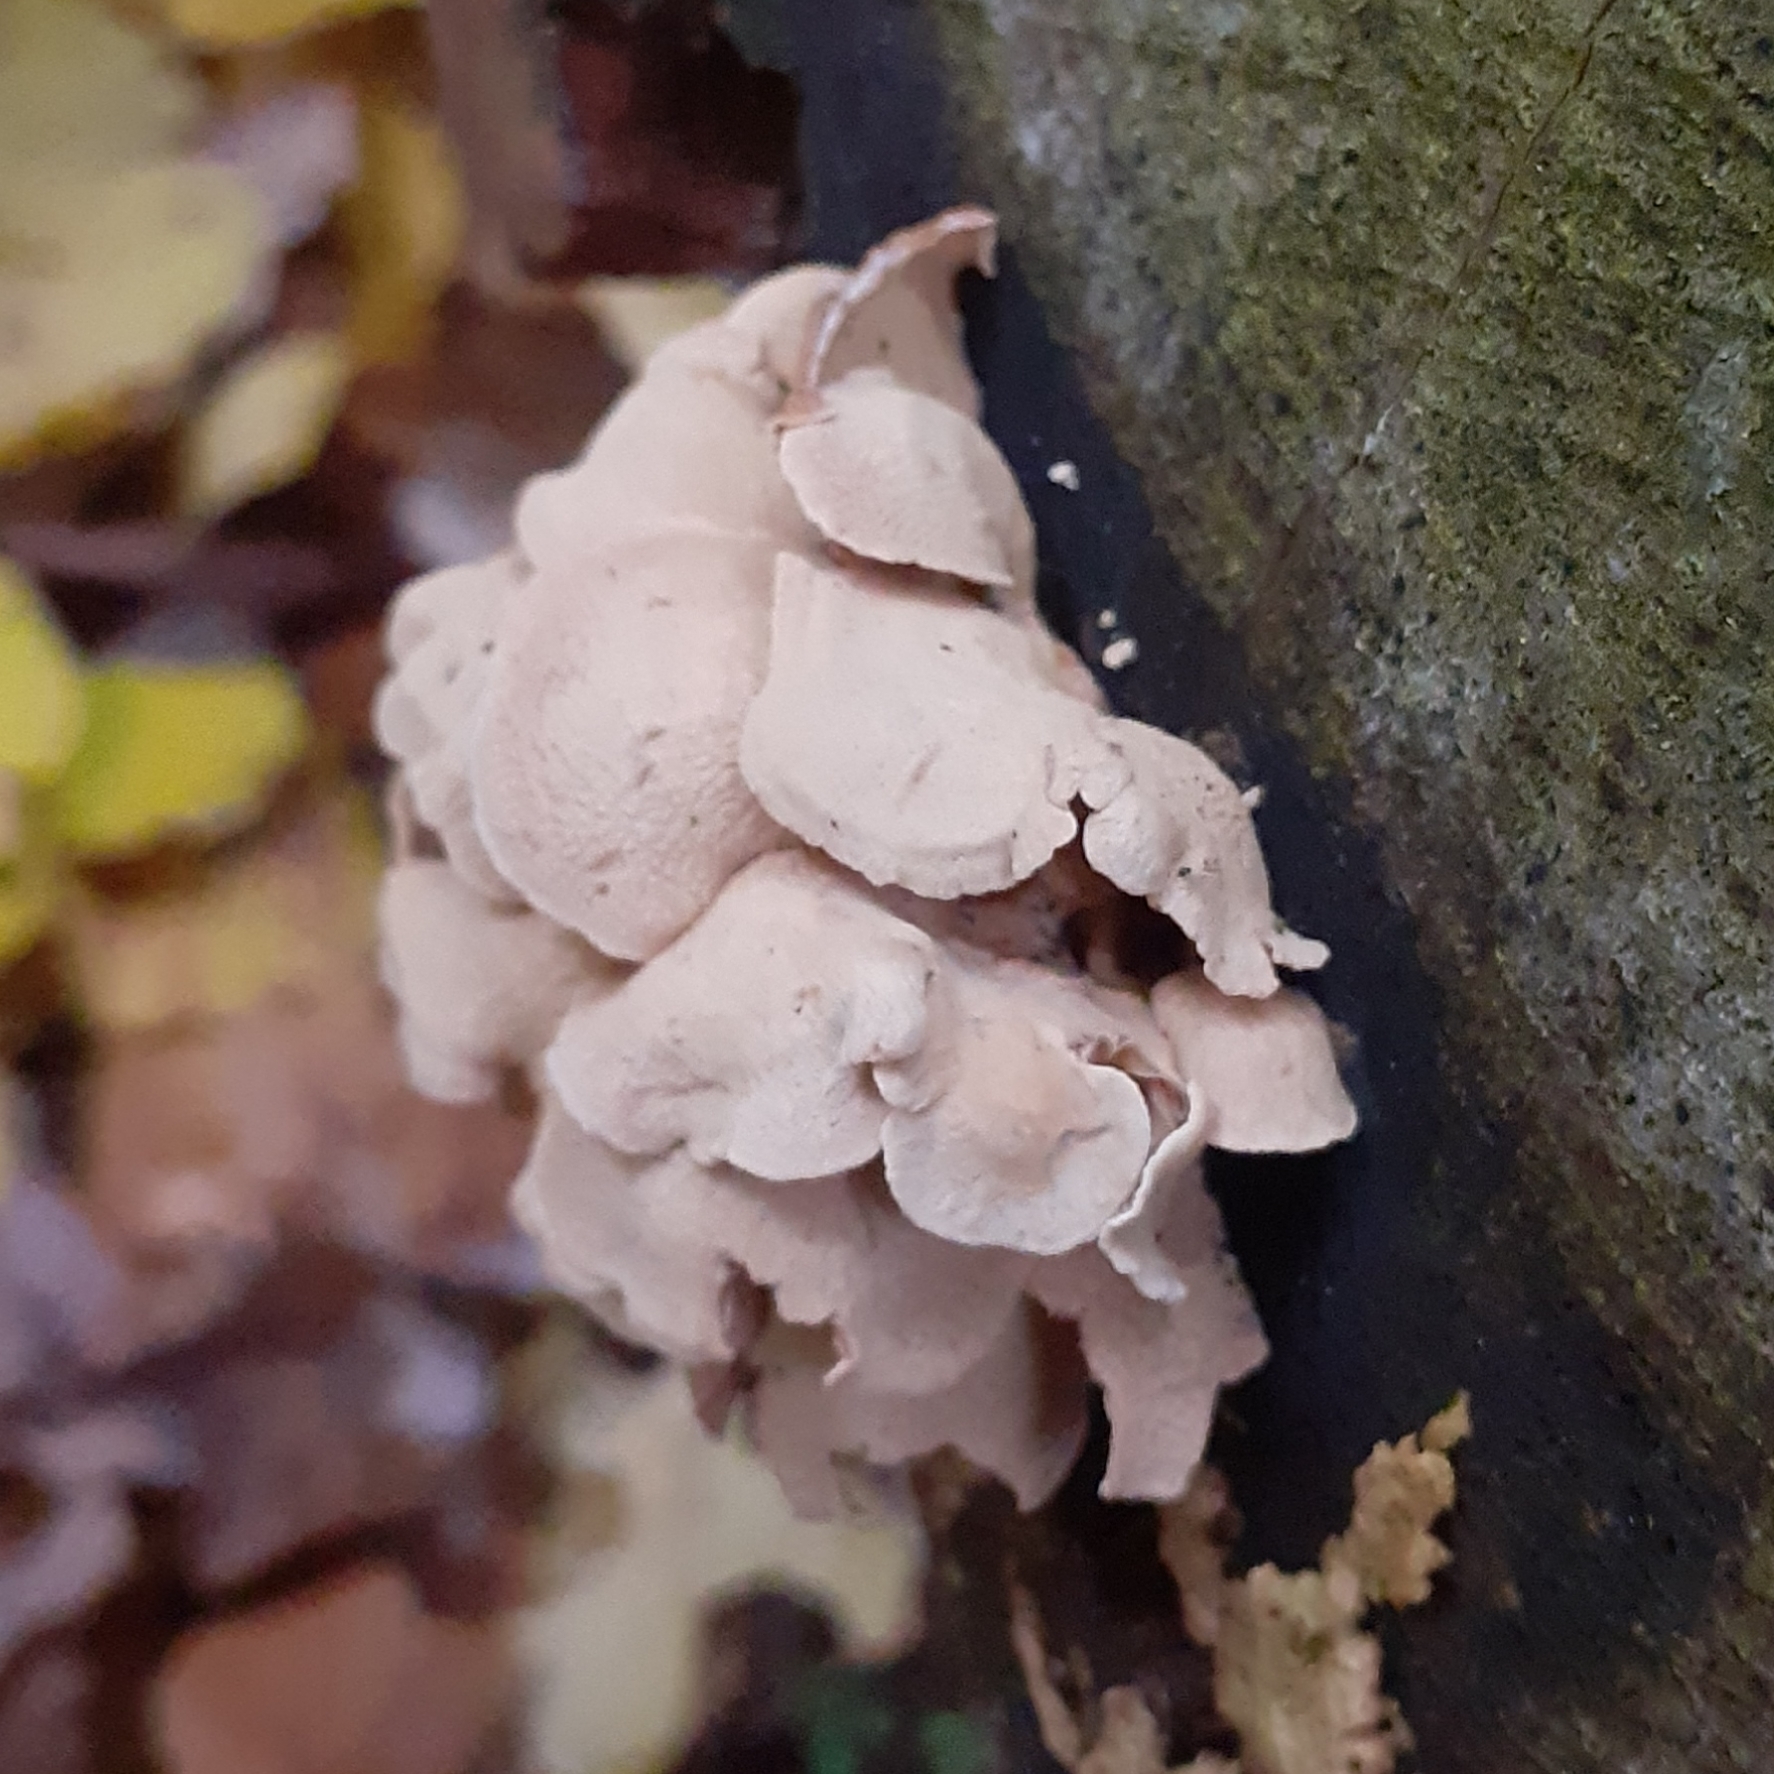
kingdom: Fungi
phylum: Basidiomycota
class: Agaricomycetes
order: Agaricales
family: Mycenaceae
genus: Panellus
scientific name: Panellus stipticus
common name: Bitter oysterling
